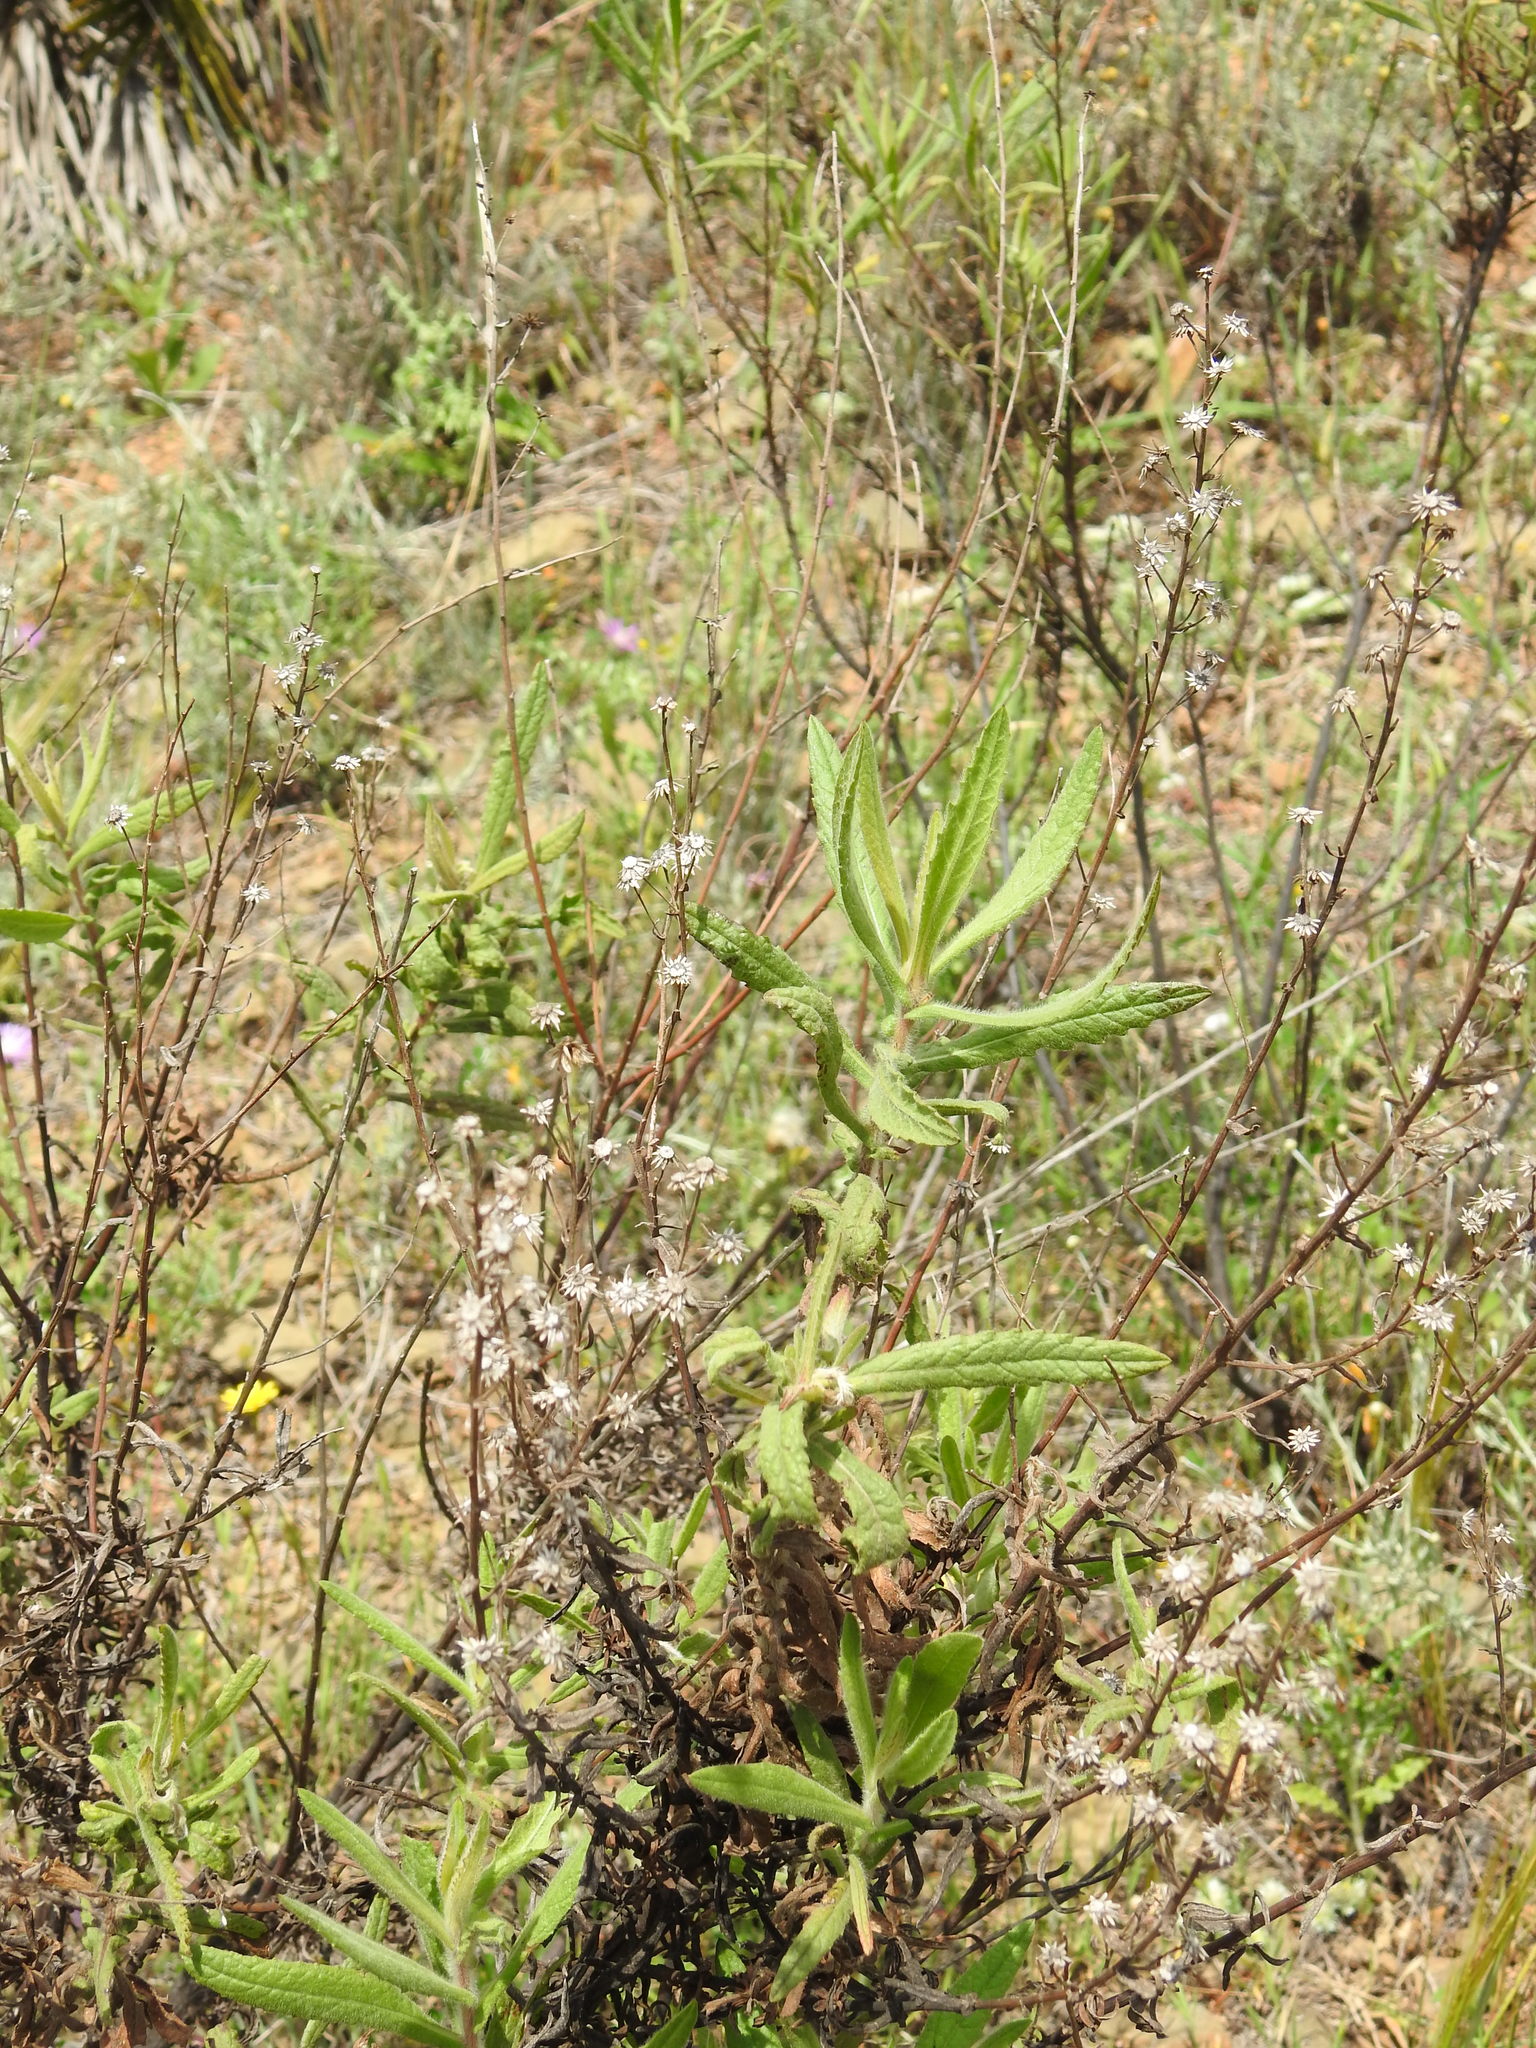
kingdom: Plantae
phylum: Tracheophyta
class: Magnoliopsida
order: Asterales
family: Asteraceae
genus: Dittrichia
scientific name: Dittrichia viscosa
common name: Woody fleabane
